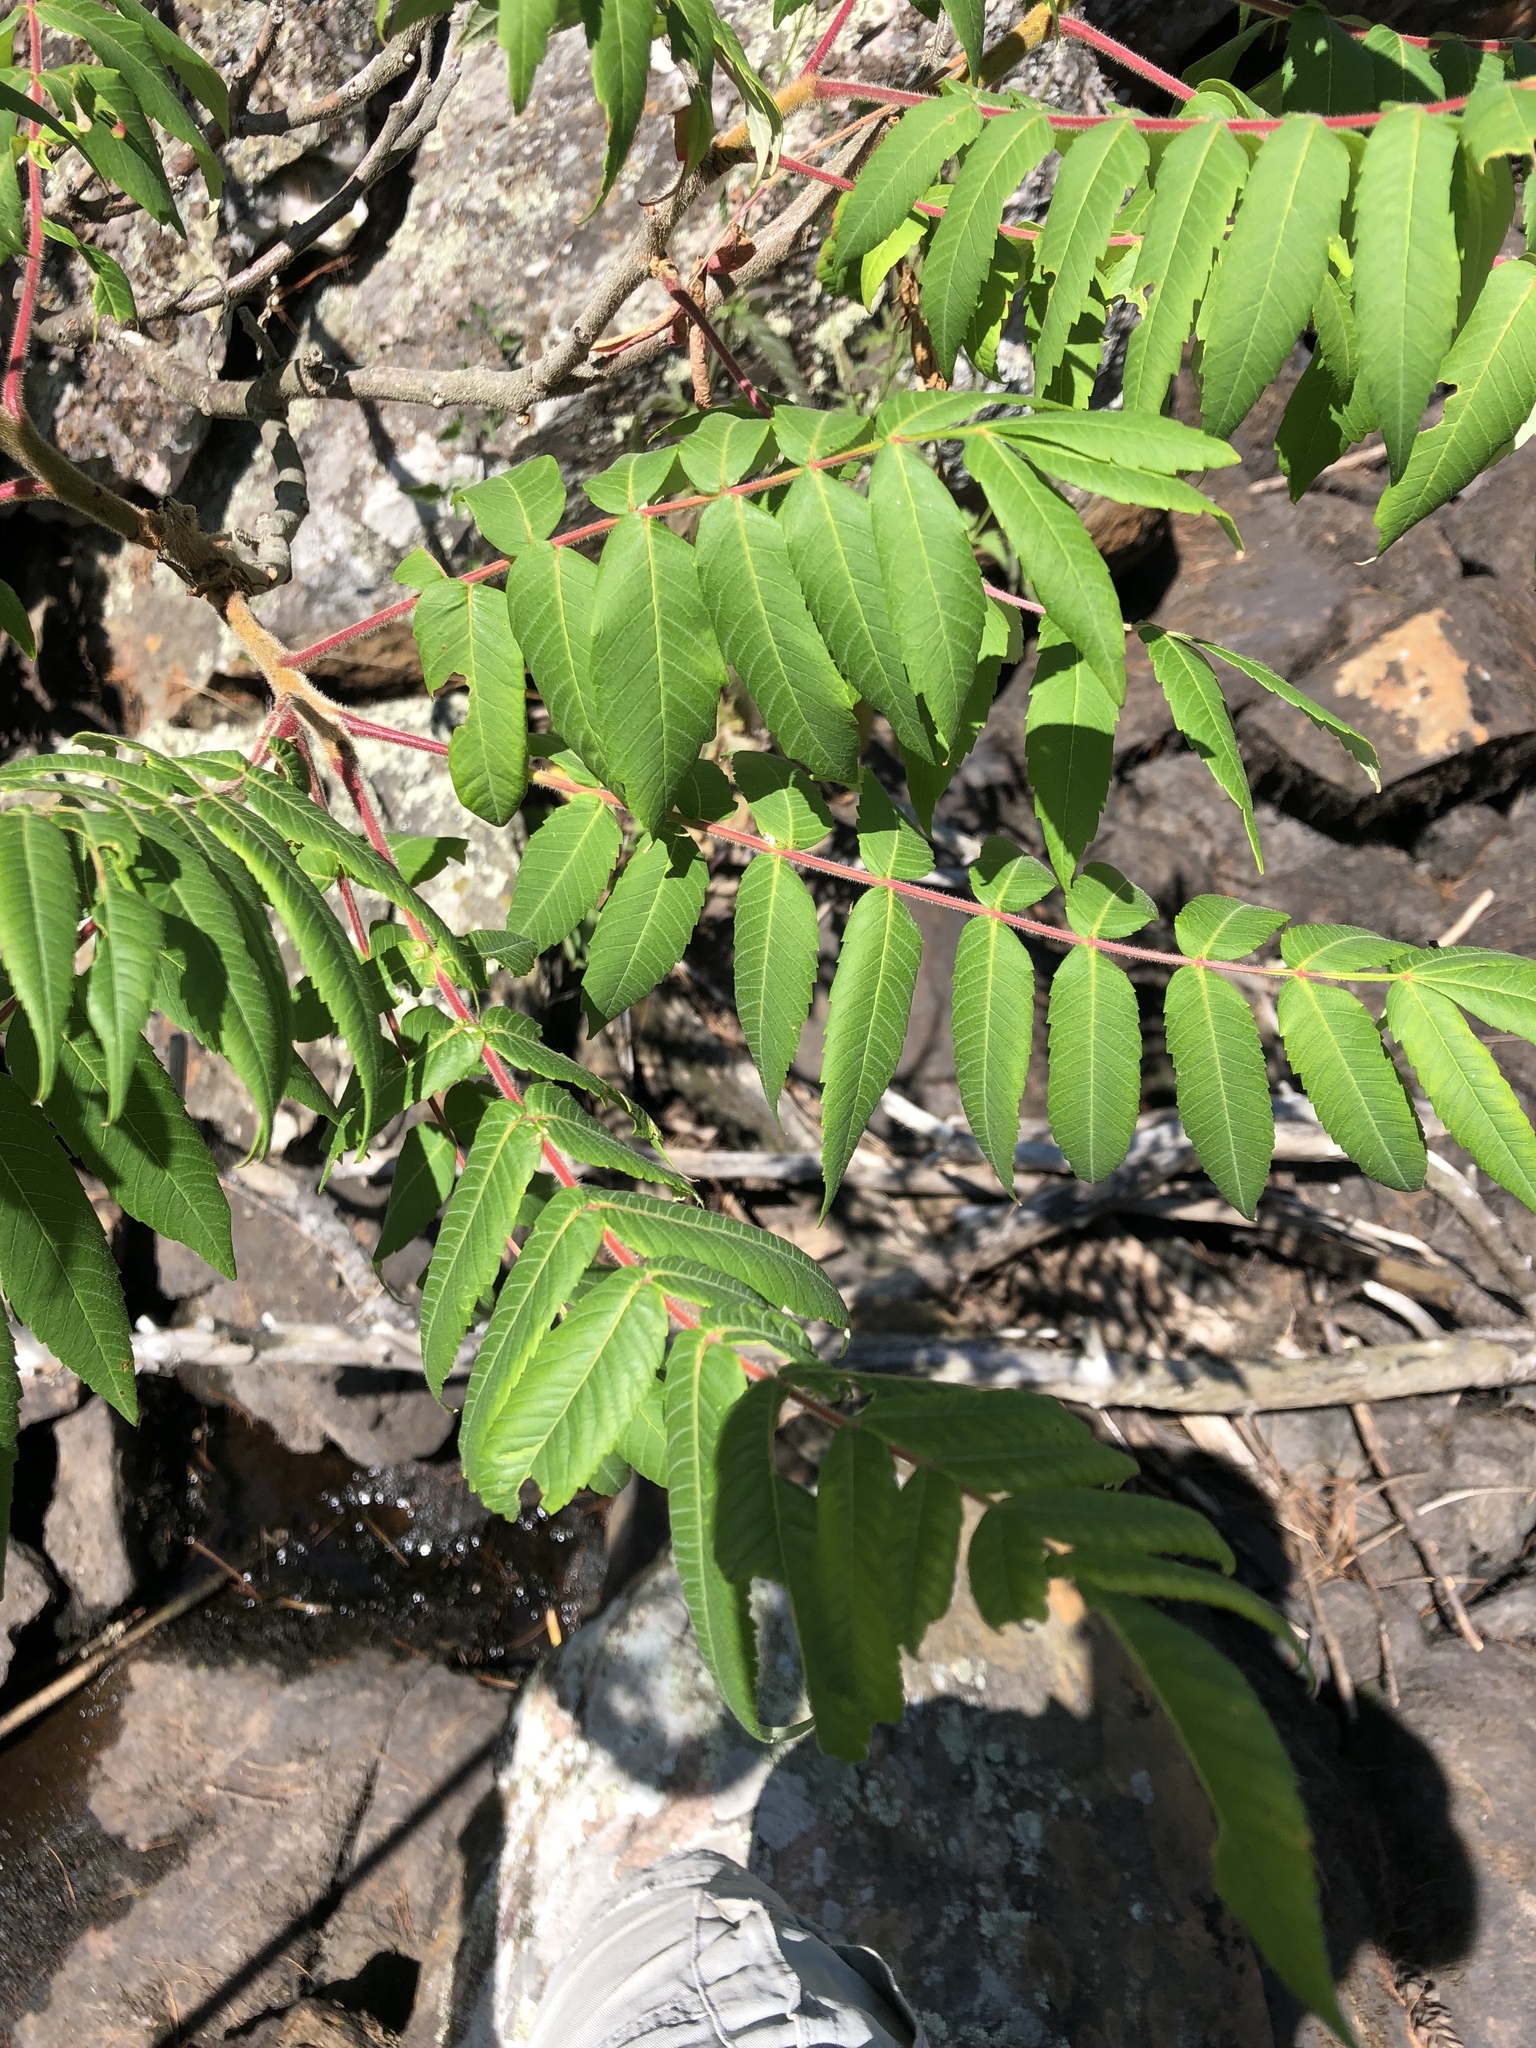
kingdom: Plantae
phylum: Tracheophyta
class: Magnoliopsida
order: Sapindales
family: Anacardiaceae
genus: Rhus
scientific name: Rhus typhina
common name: Staghorn sumac
